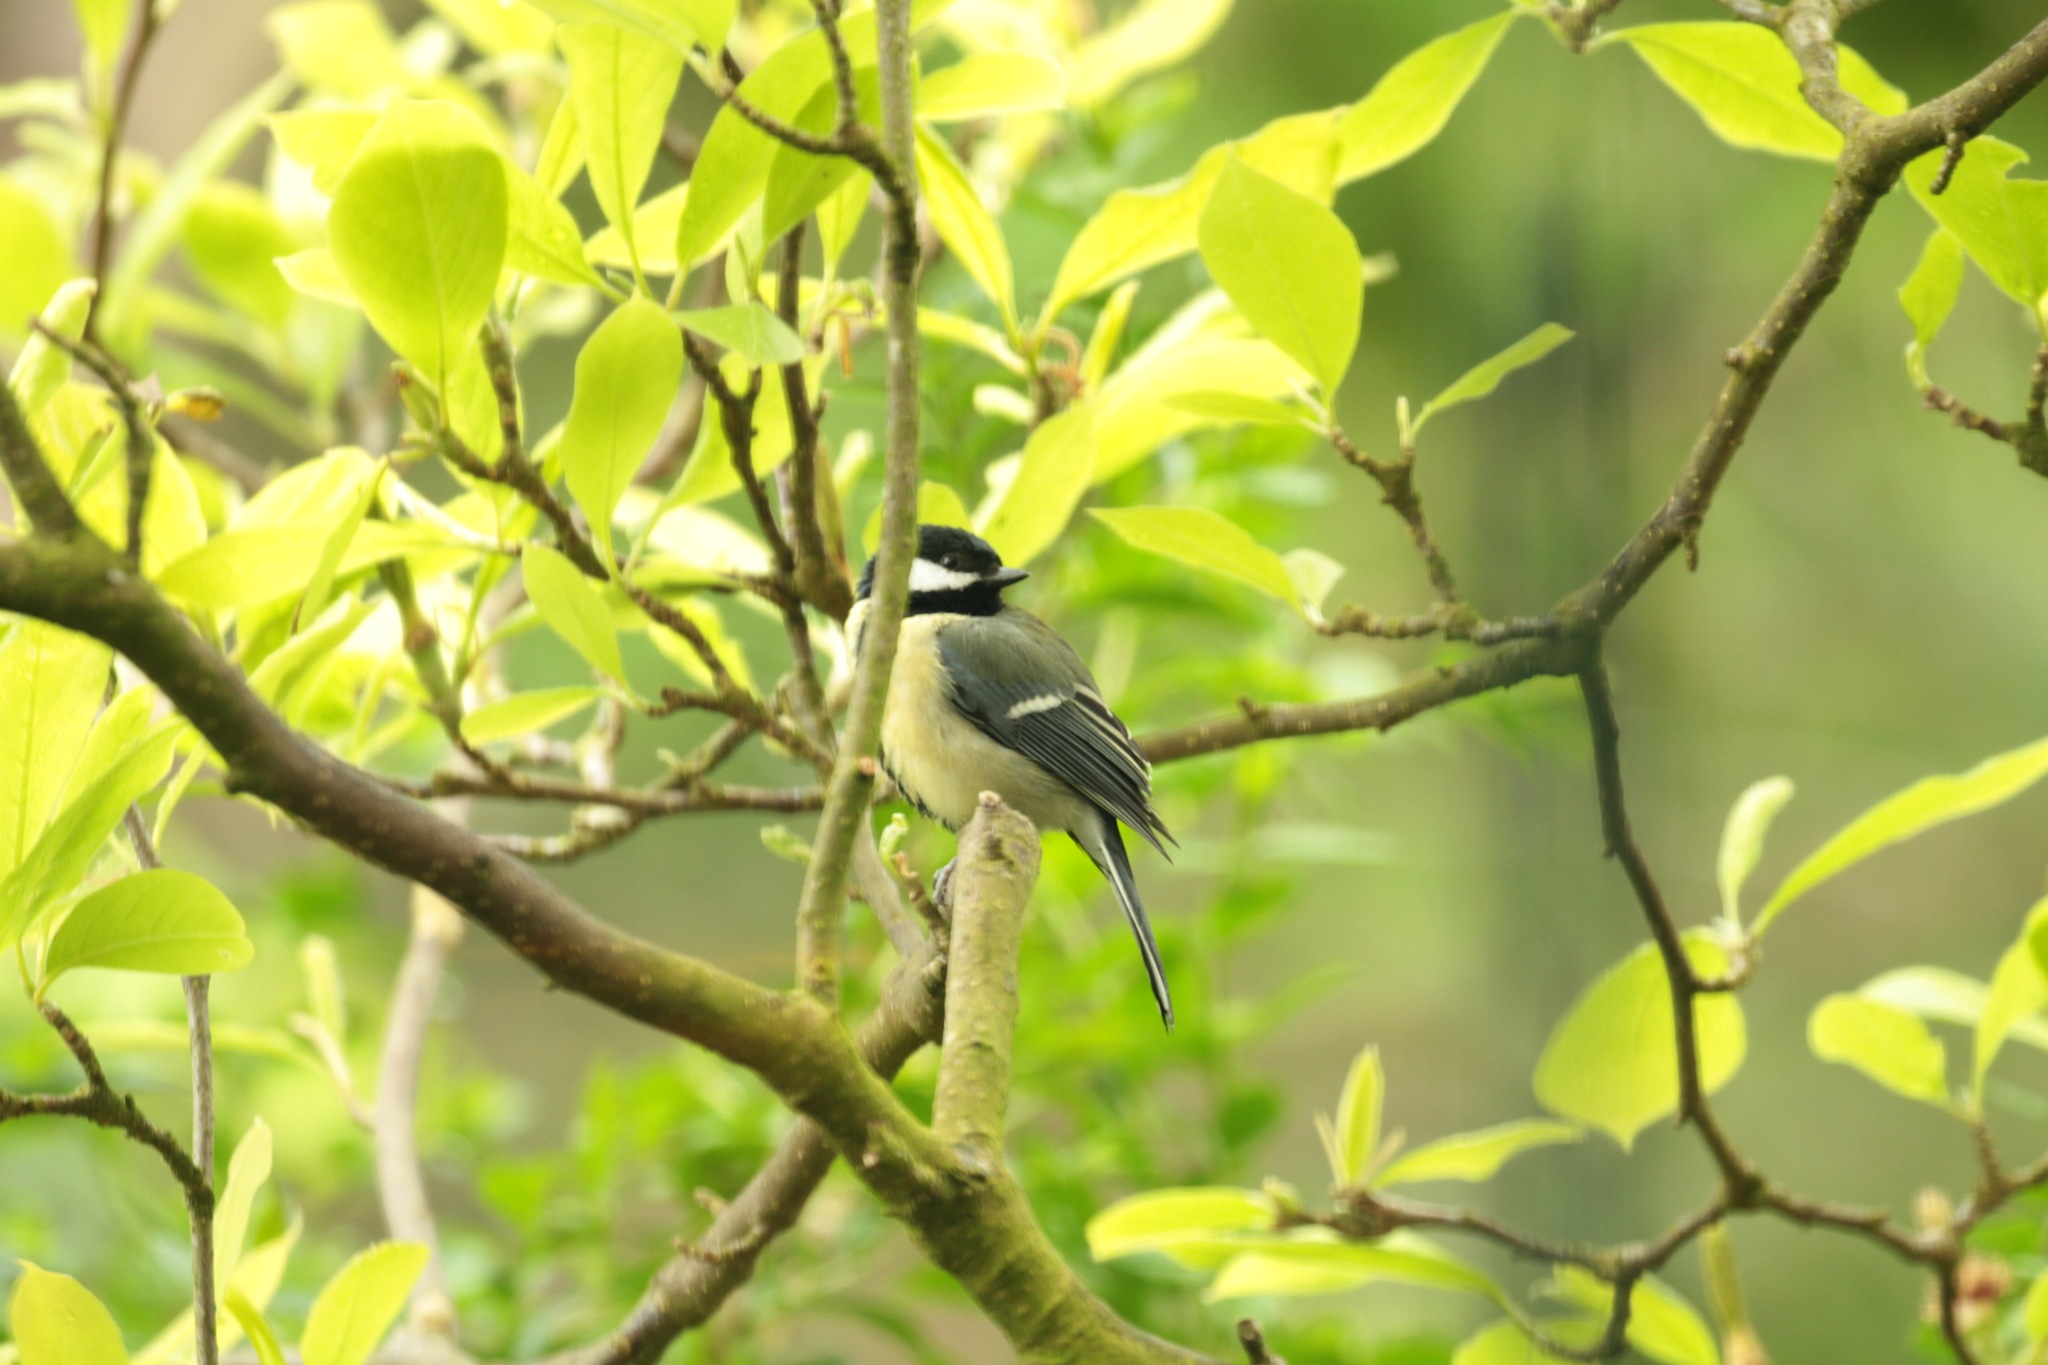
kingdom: Animalia
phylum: Chordata
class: Aves
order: Passeriformes
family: Paridae
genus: Parus
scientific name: Parus major
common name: Great tit
